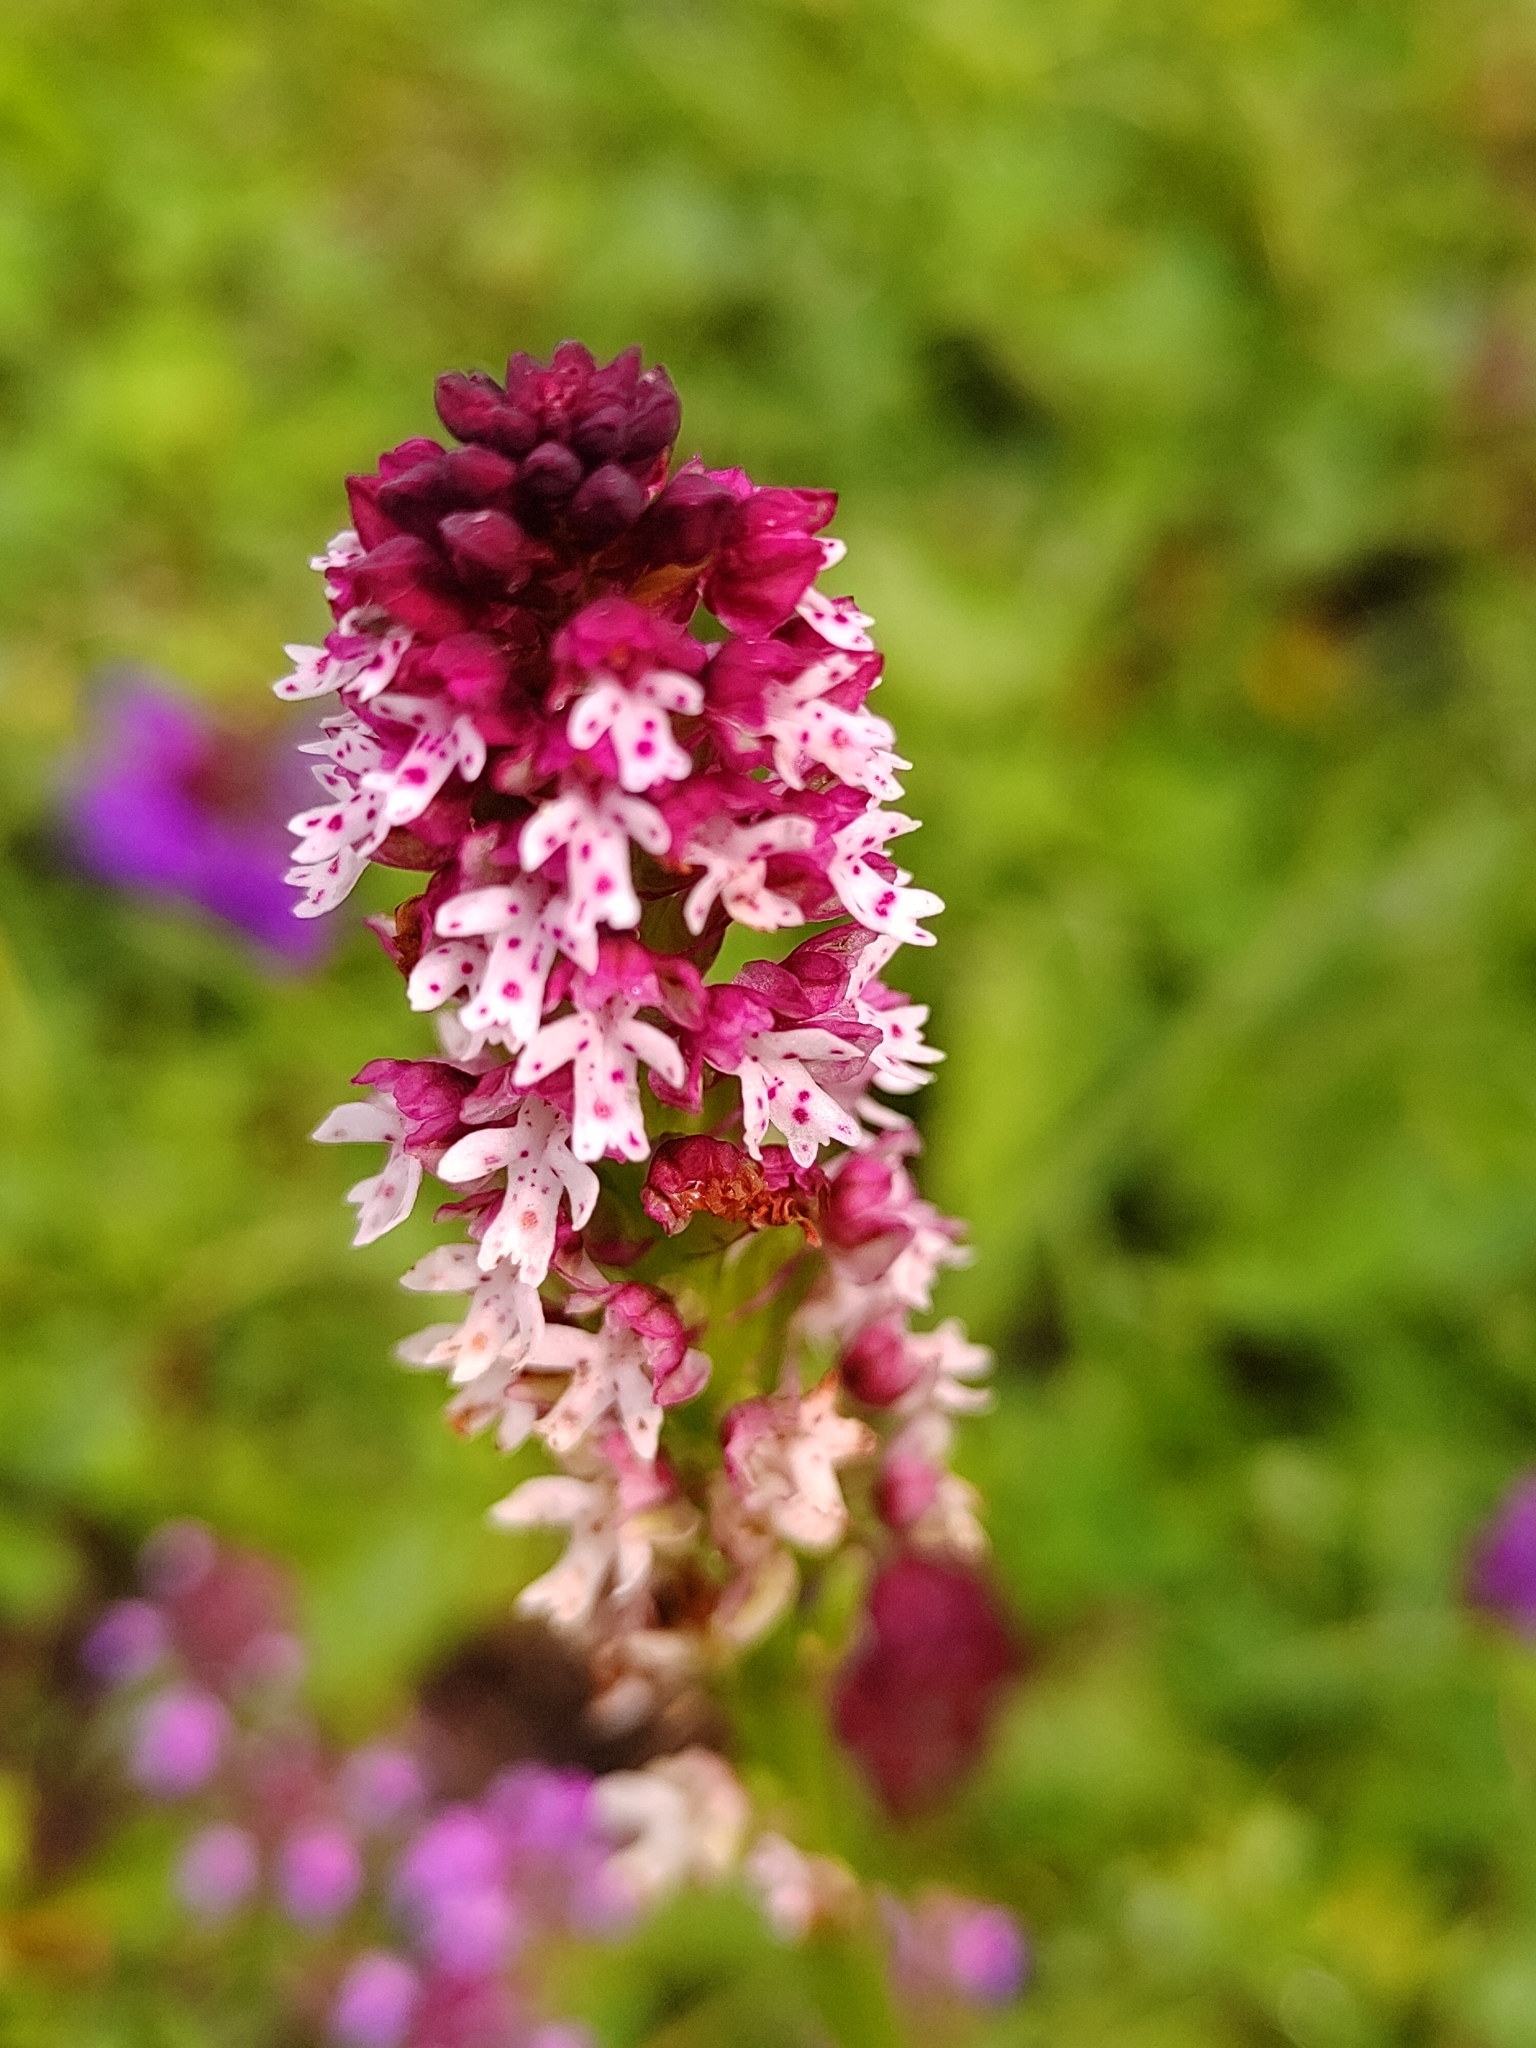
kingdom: Plantae
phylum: Tracheophyta
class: Liliopsida
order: Asparagales
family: Orchidaceae
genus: Neotinea
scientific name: Neotinea ustulata
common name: Burnt orchid
